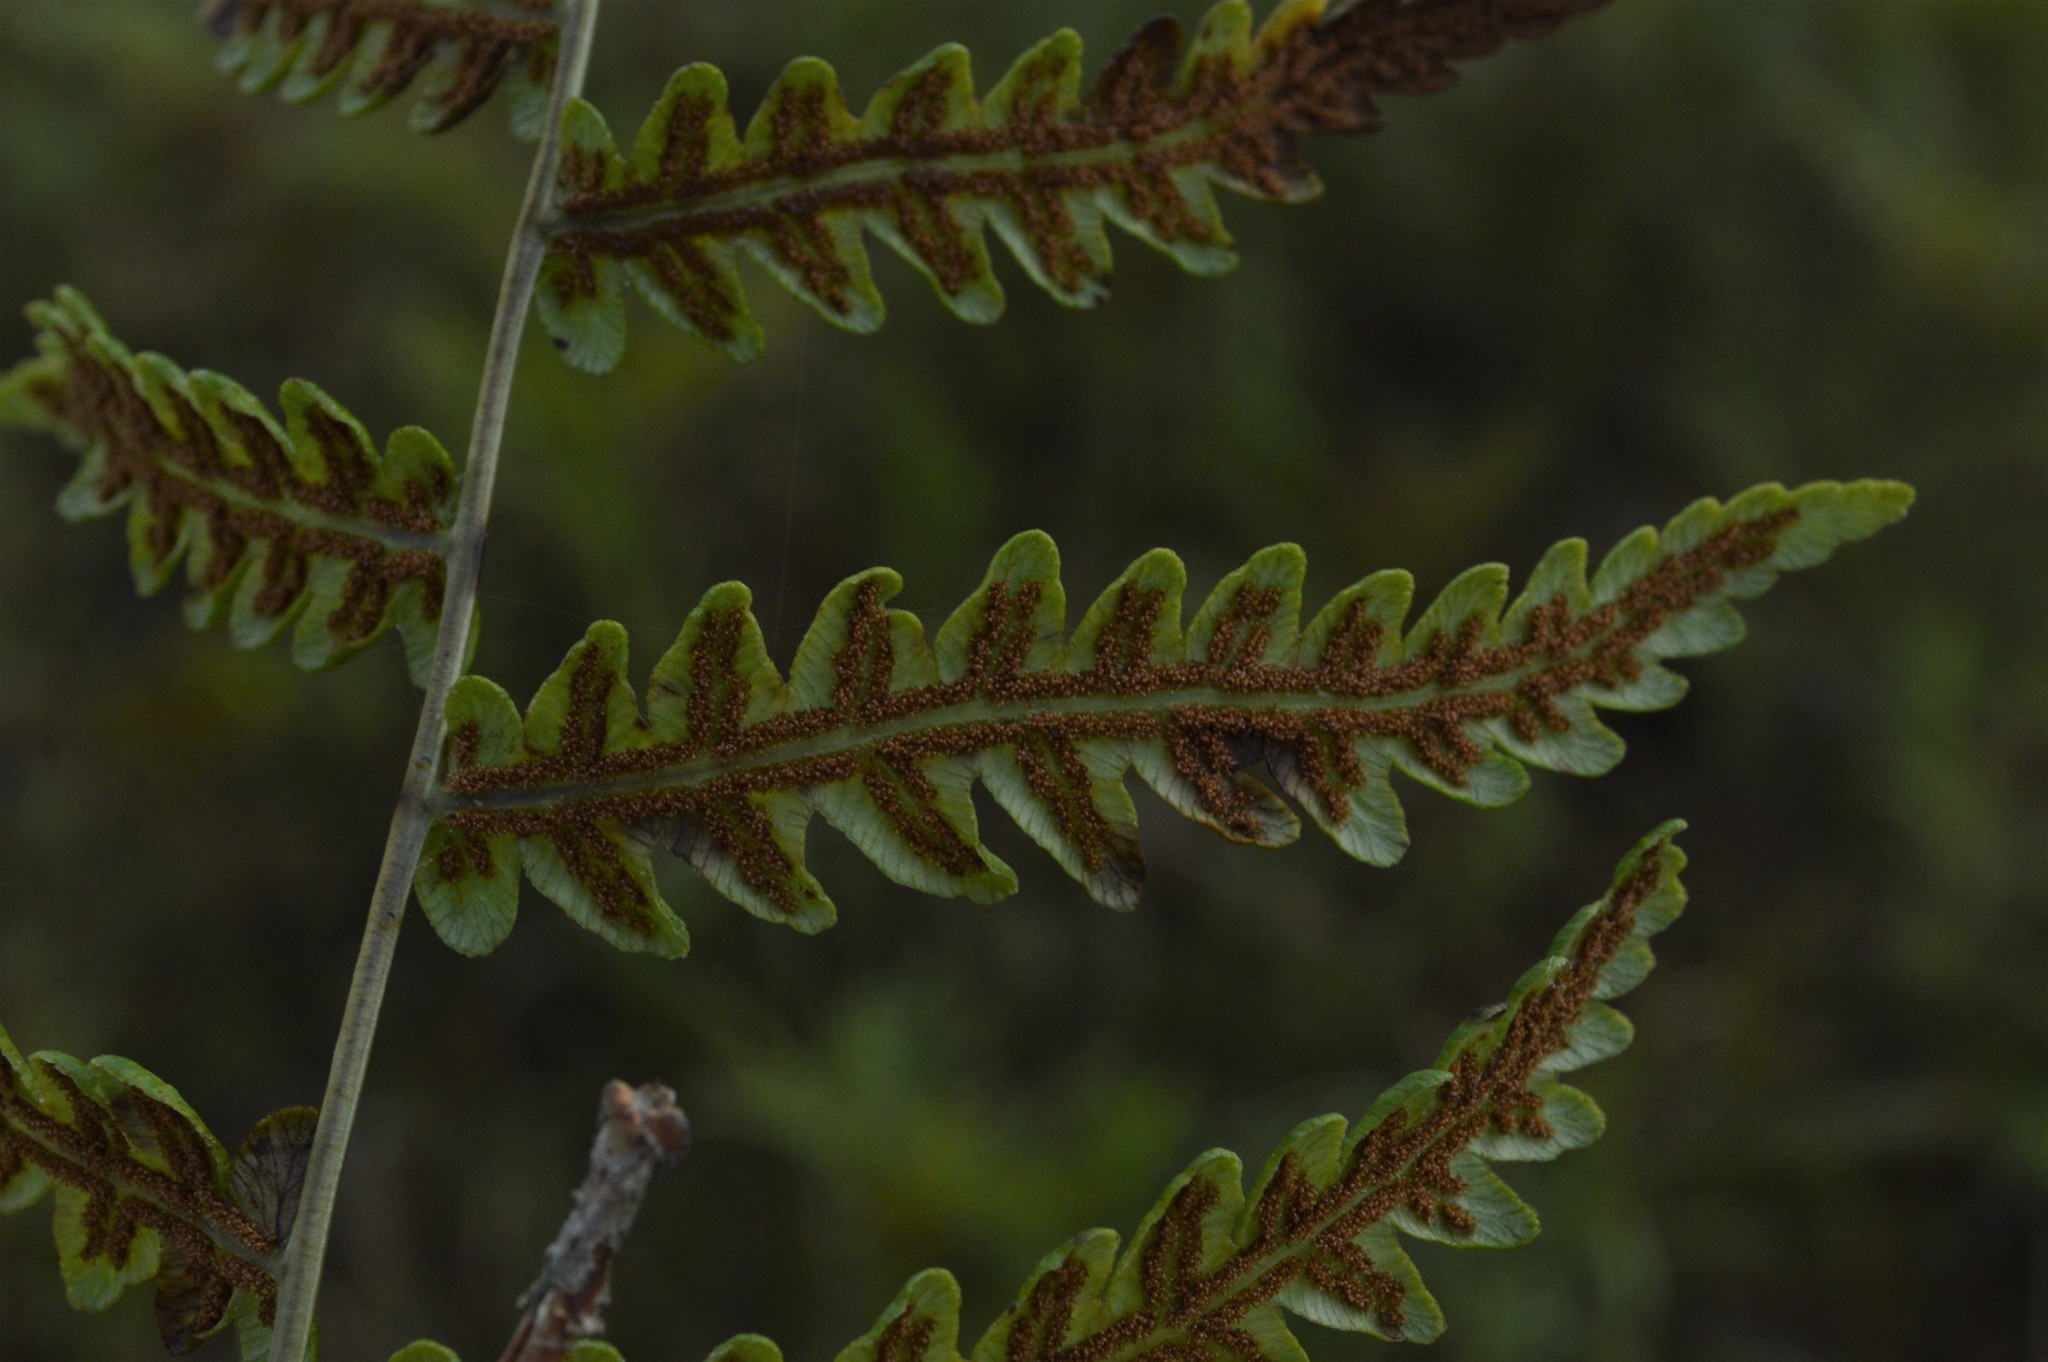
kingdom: Plantae
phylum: Tracheophyta
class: Polypodiopsida
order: Polypodiales
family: Blechnaceae
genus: Anchistea
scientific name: Anchistea virginica
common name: Virginia chain fern
